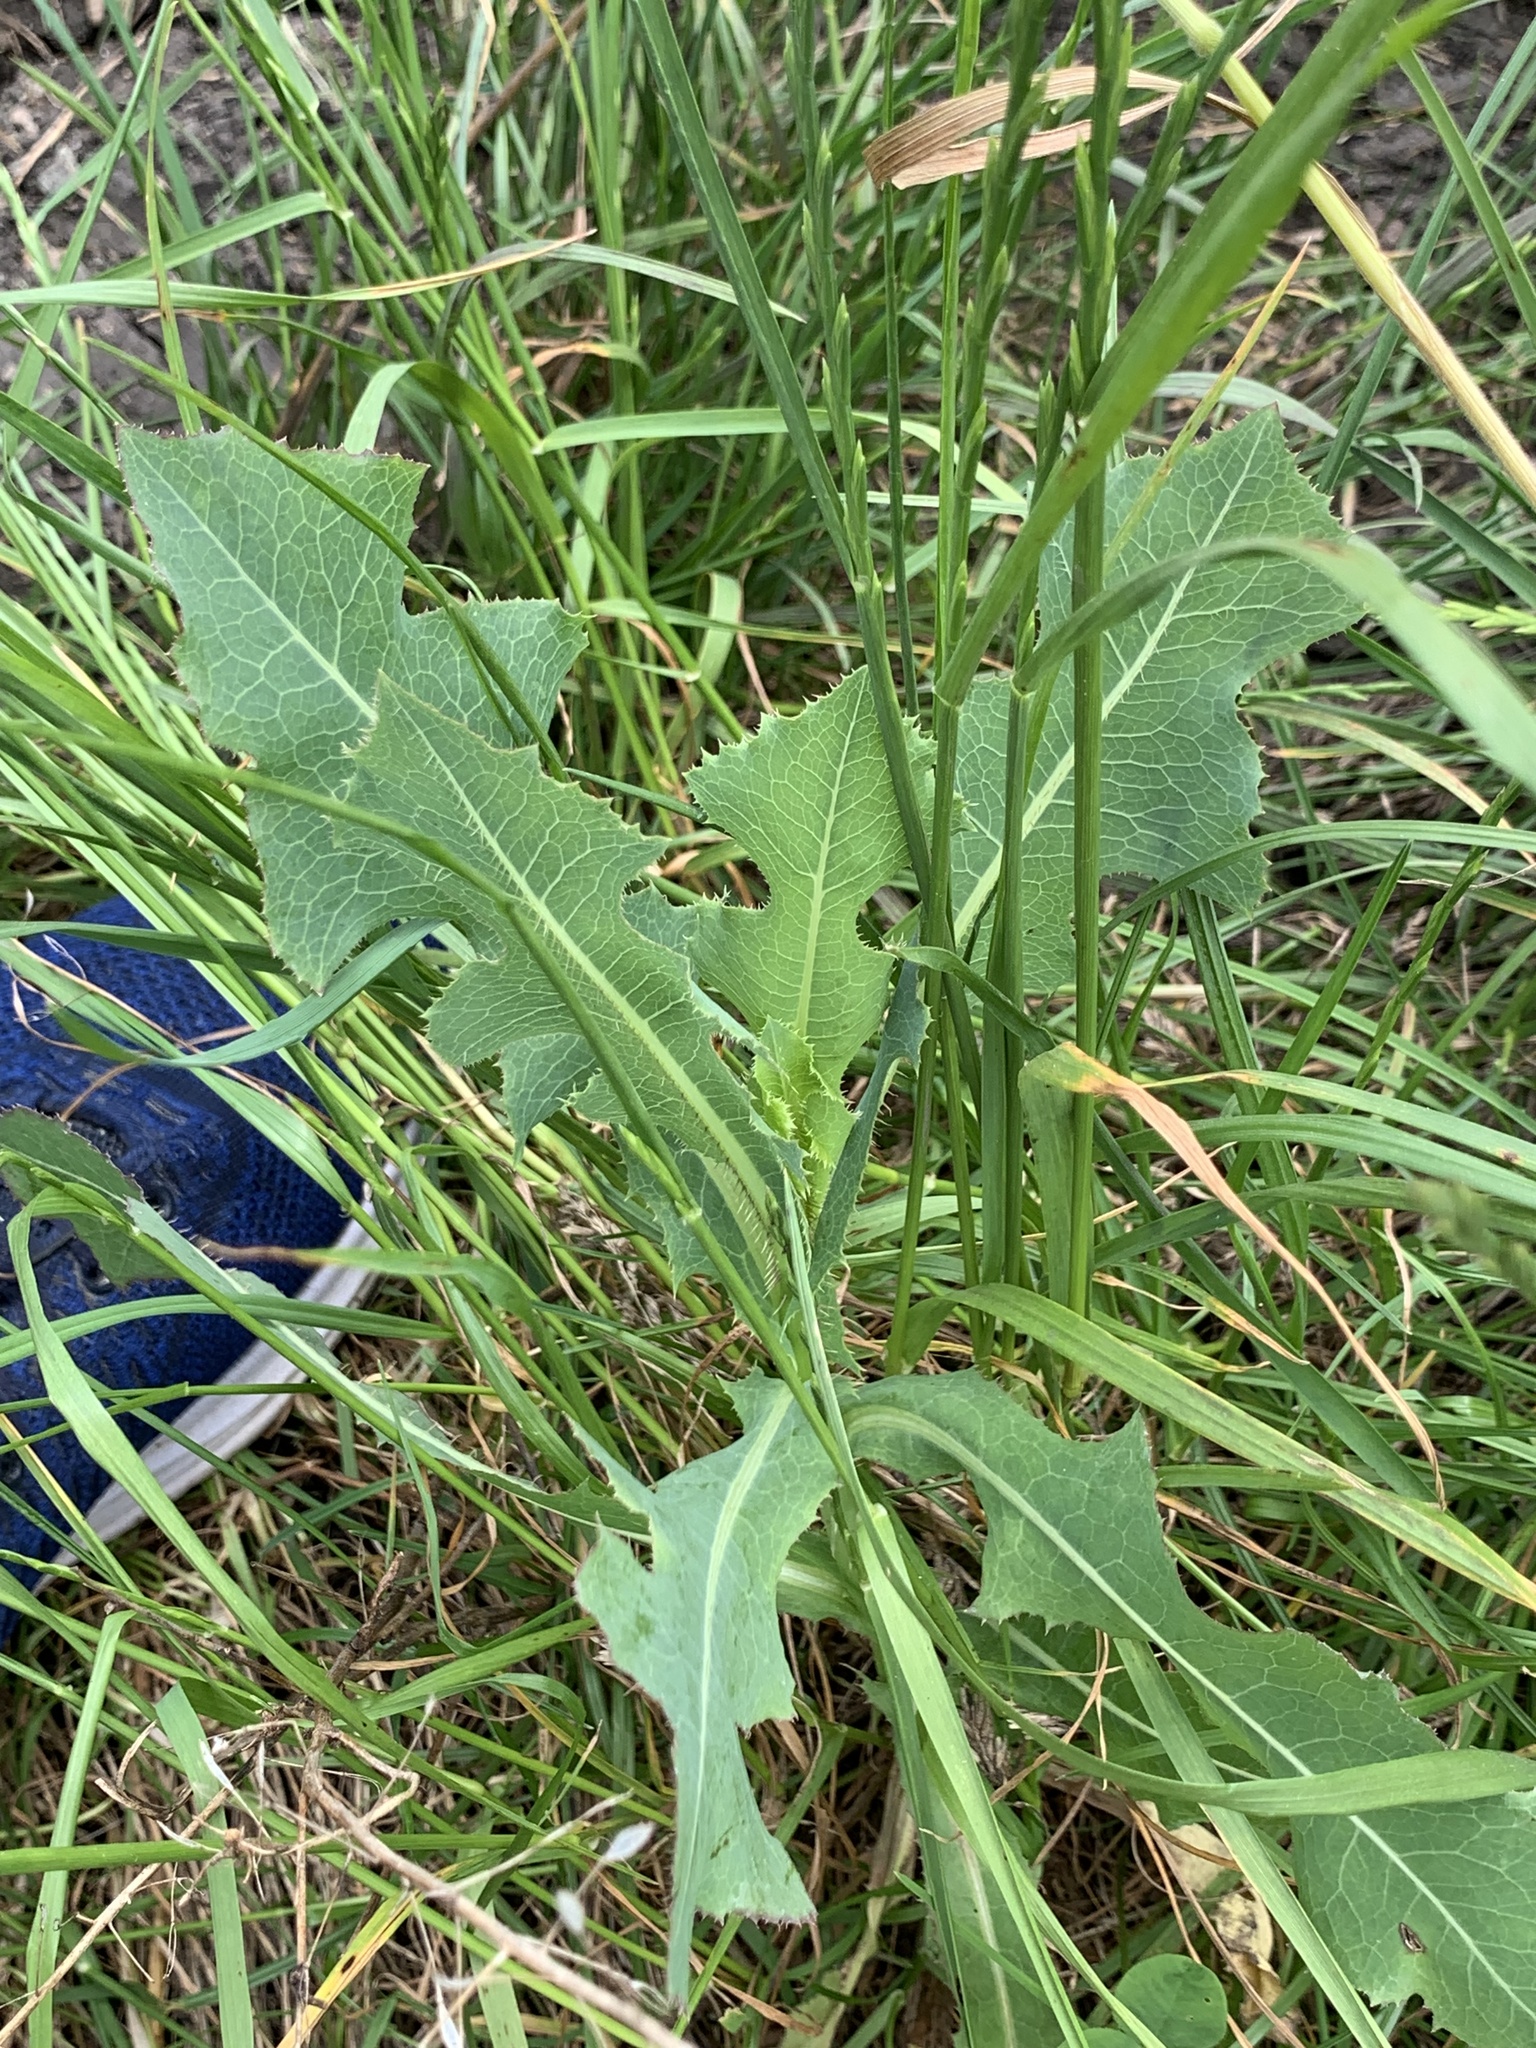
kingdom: Plantae
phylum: Tracheophyta
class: Magnoliopsida
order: Asterales
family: Asteraceae
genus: Lactuca
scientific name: Lactuca serriola
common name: Prickly lettuce
